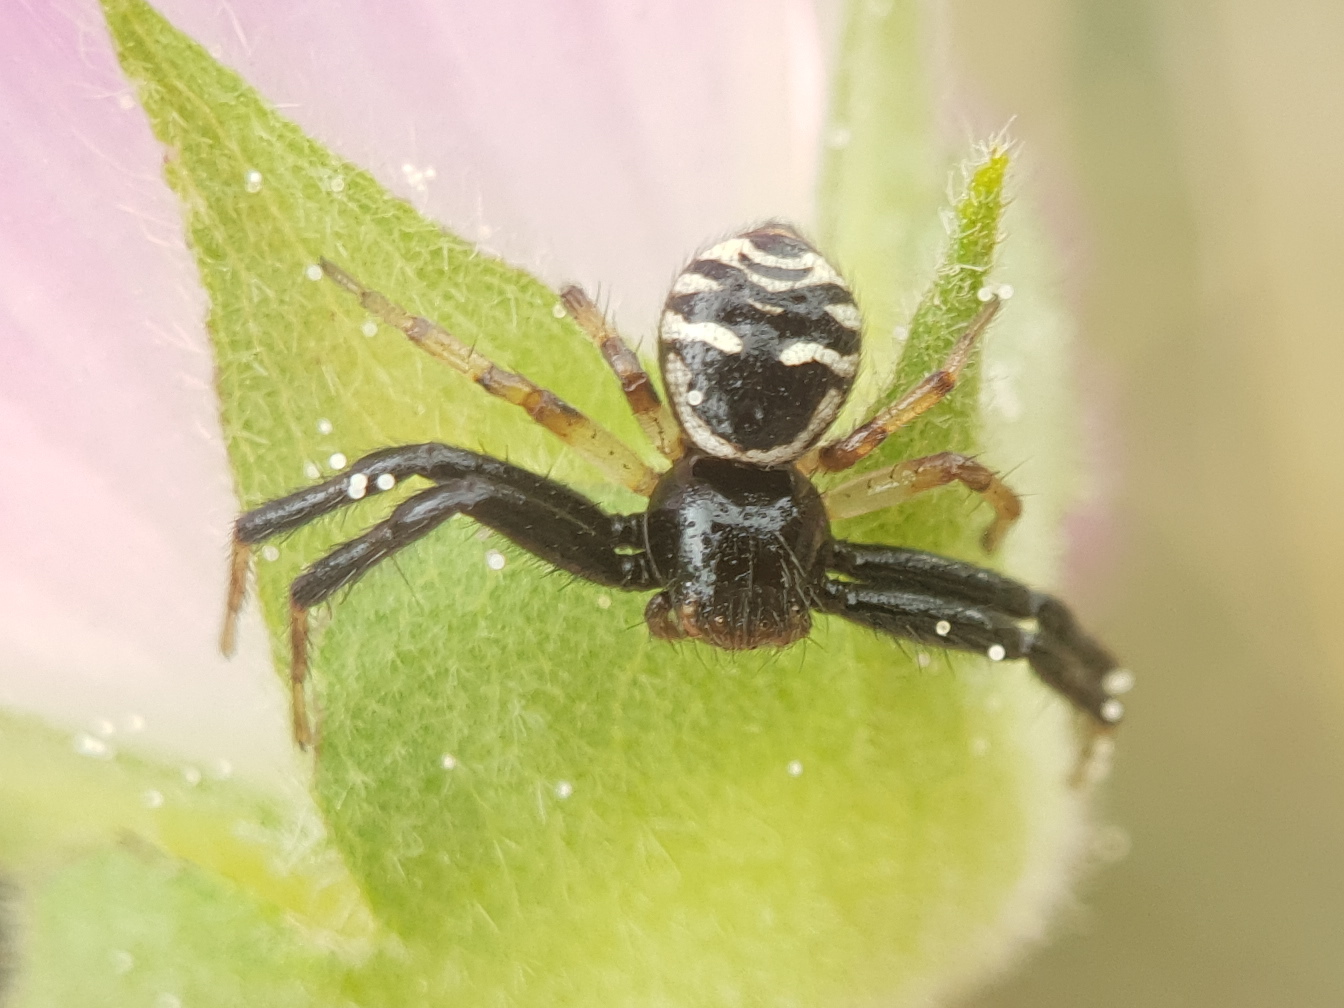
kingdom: Animalia
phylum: Arthropoda
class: Arachnida
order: Araneae
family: Thomisidae
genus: Synema
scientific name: Synema globosum
